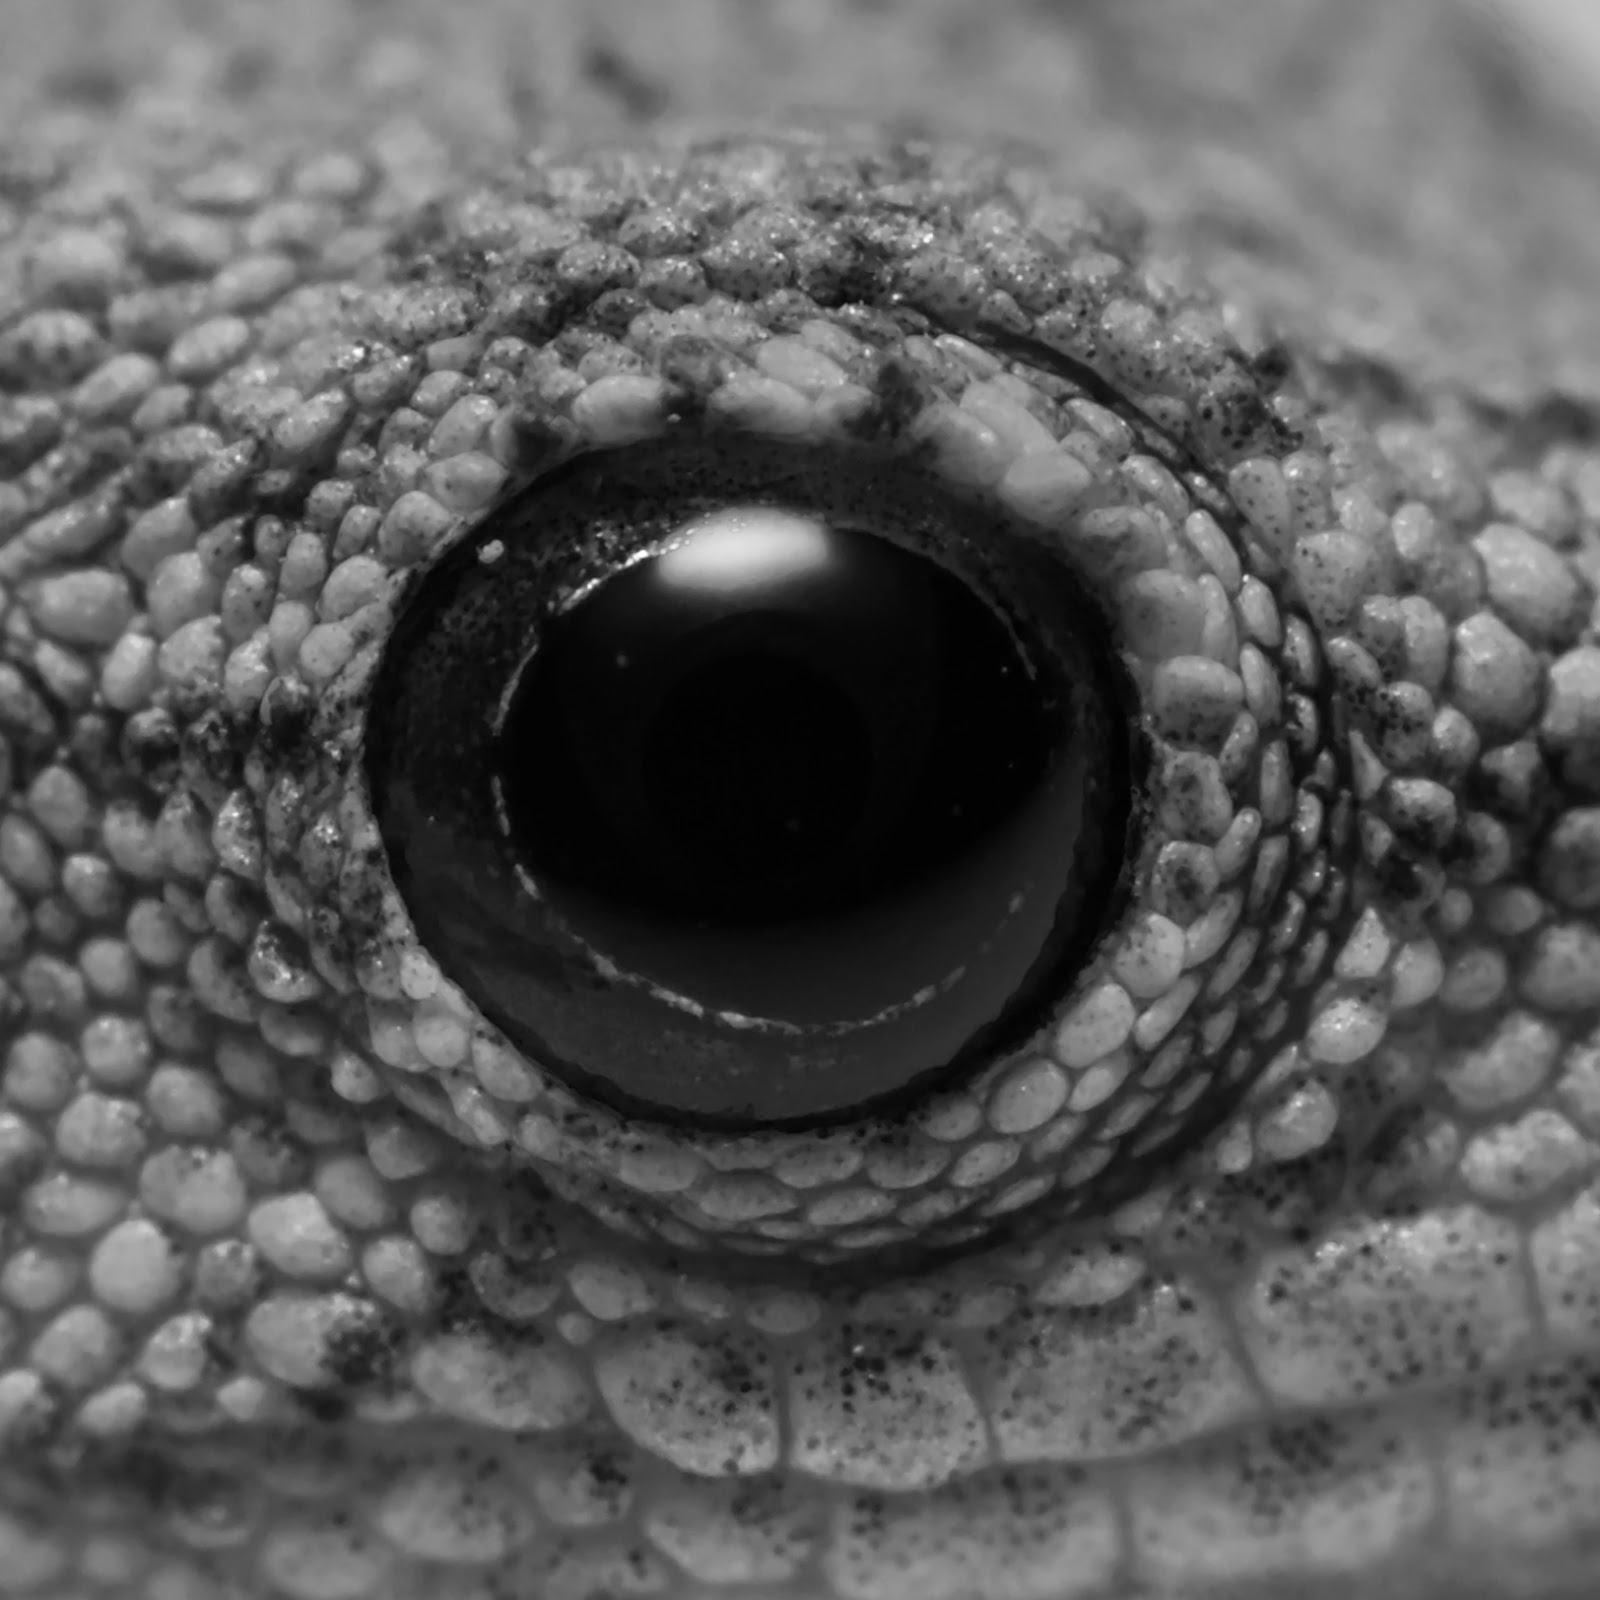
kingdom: Animalia
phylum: Chordata
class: Squamata
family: Gekkonidae
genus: Lygodactylus
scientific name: Lygodactylus capensis
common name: Cape dwarf gecko
